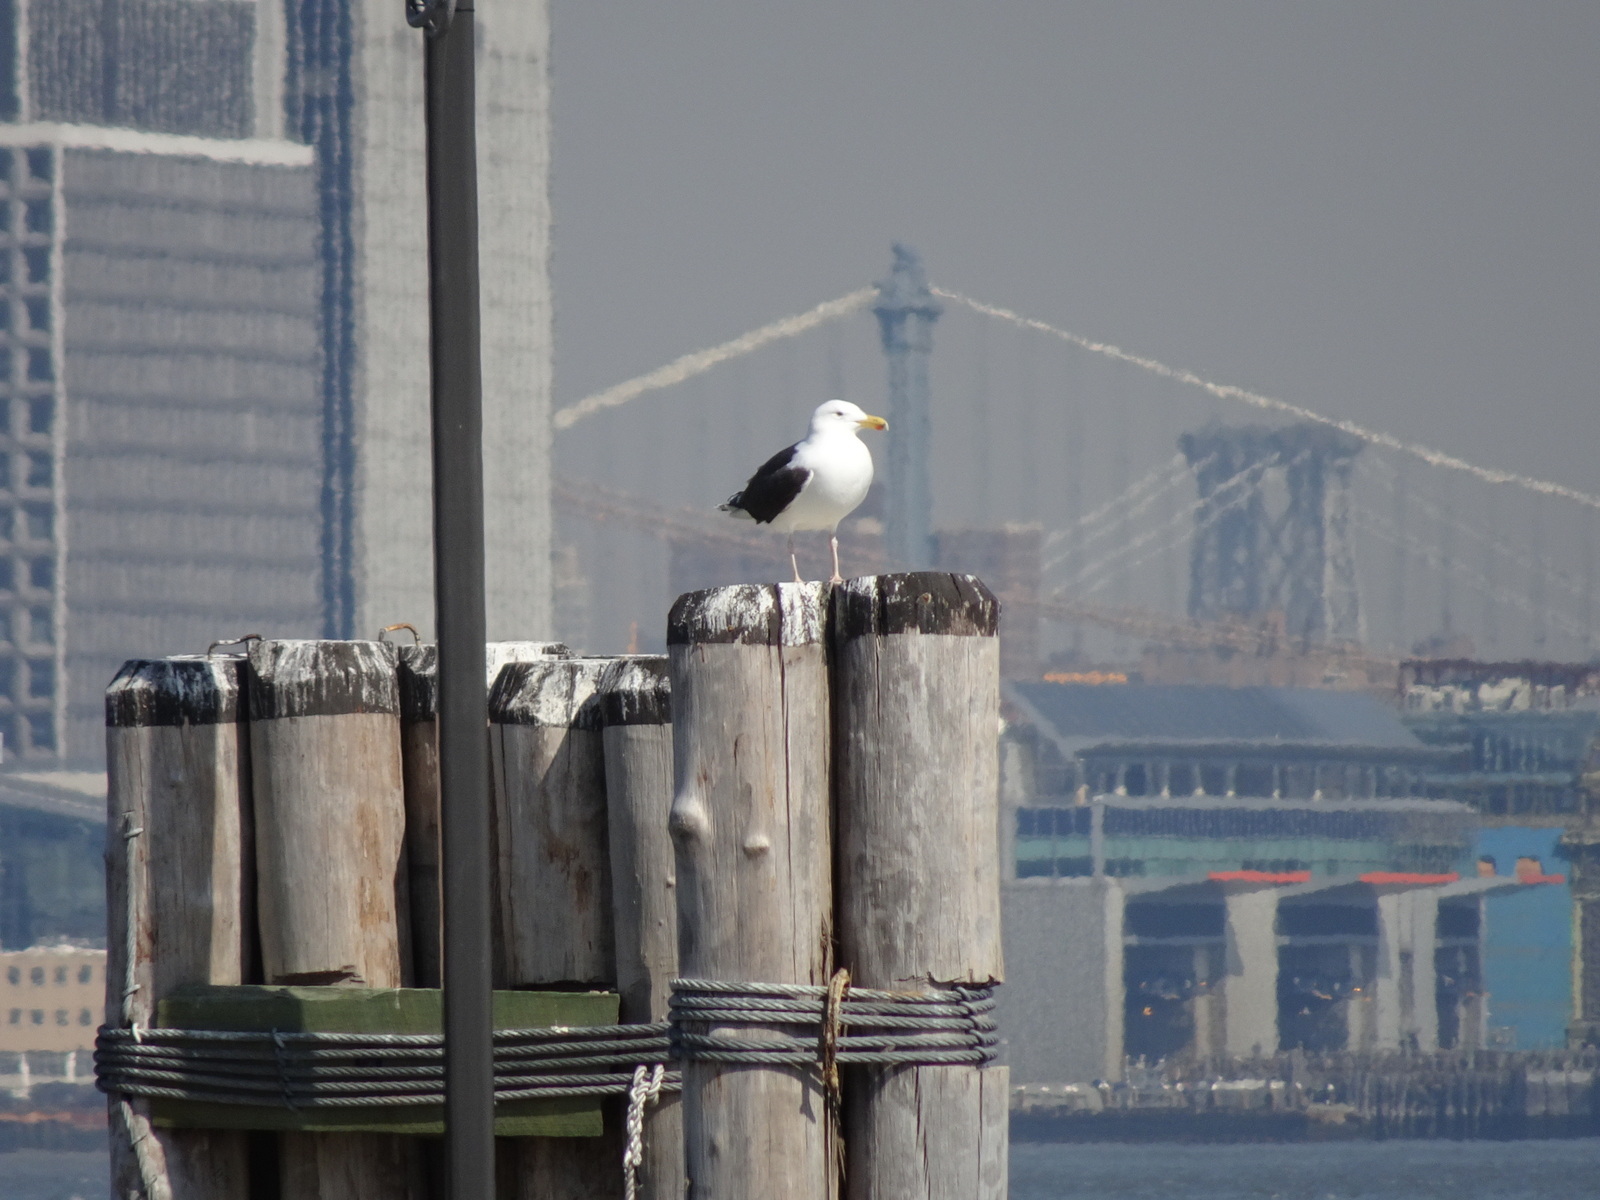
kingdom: Animalia
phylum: Chordata
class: Aves
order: Charadriiformes
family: Laridae
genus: Larus
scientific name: Larus marinus
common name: Great black-backed gull
